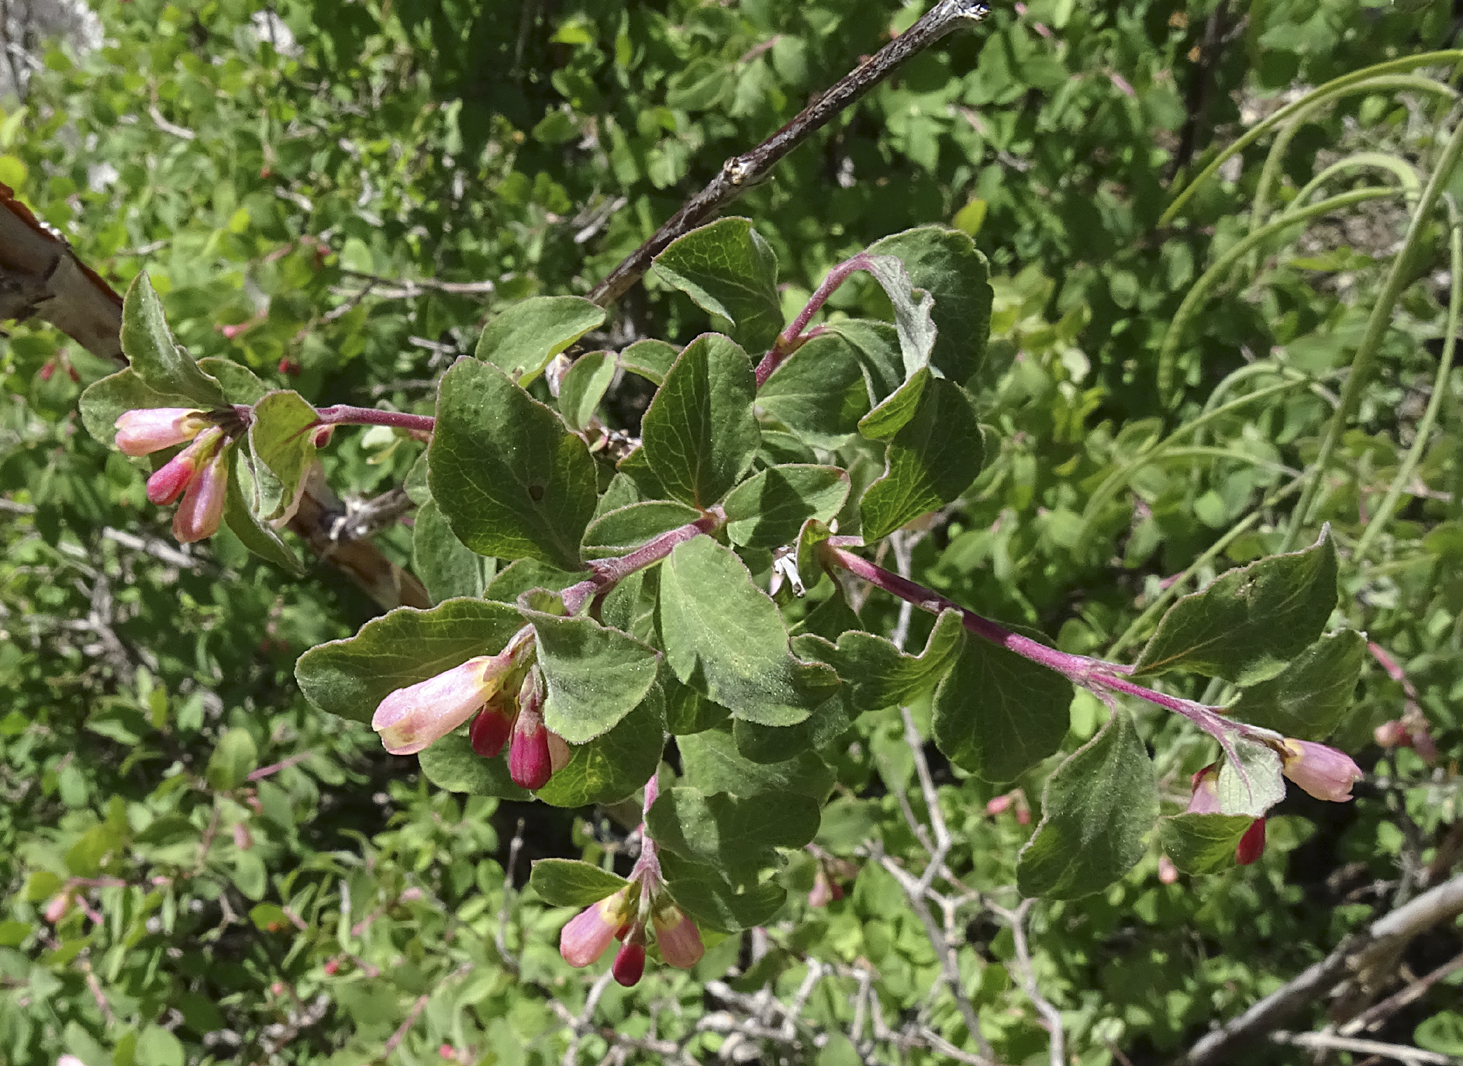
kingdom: Plantae
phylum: Tracheophyta
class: Magnoliopsida
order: Dipsacales
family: Caprifoliaceae
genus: Symphoricarpos
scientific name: Symphoricarpos rotundifolius
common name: Round-leaved snowberry
